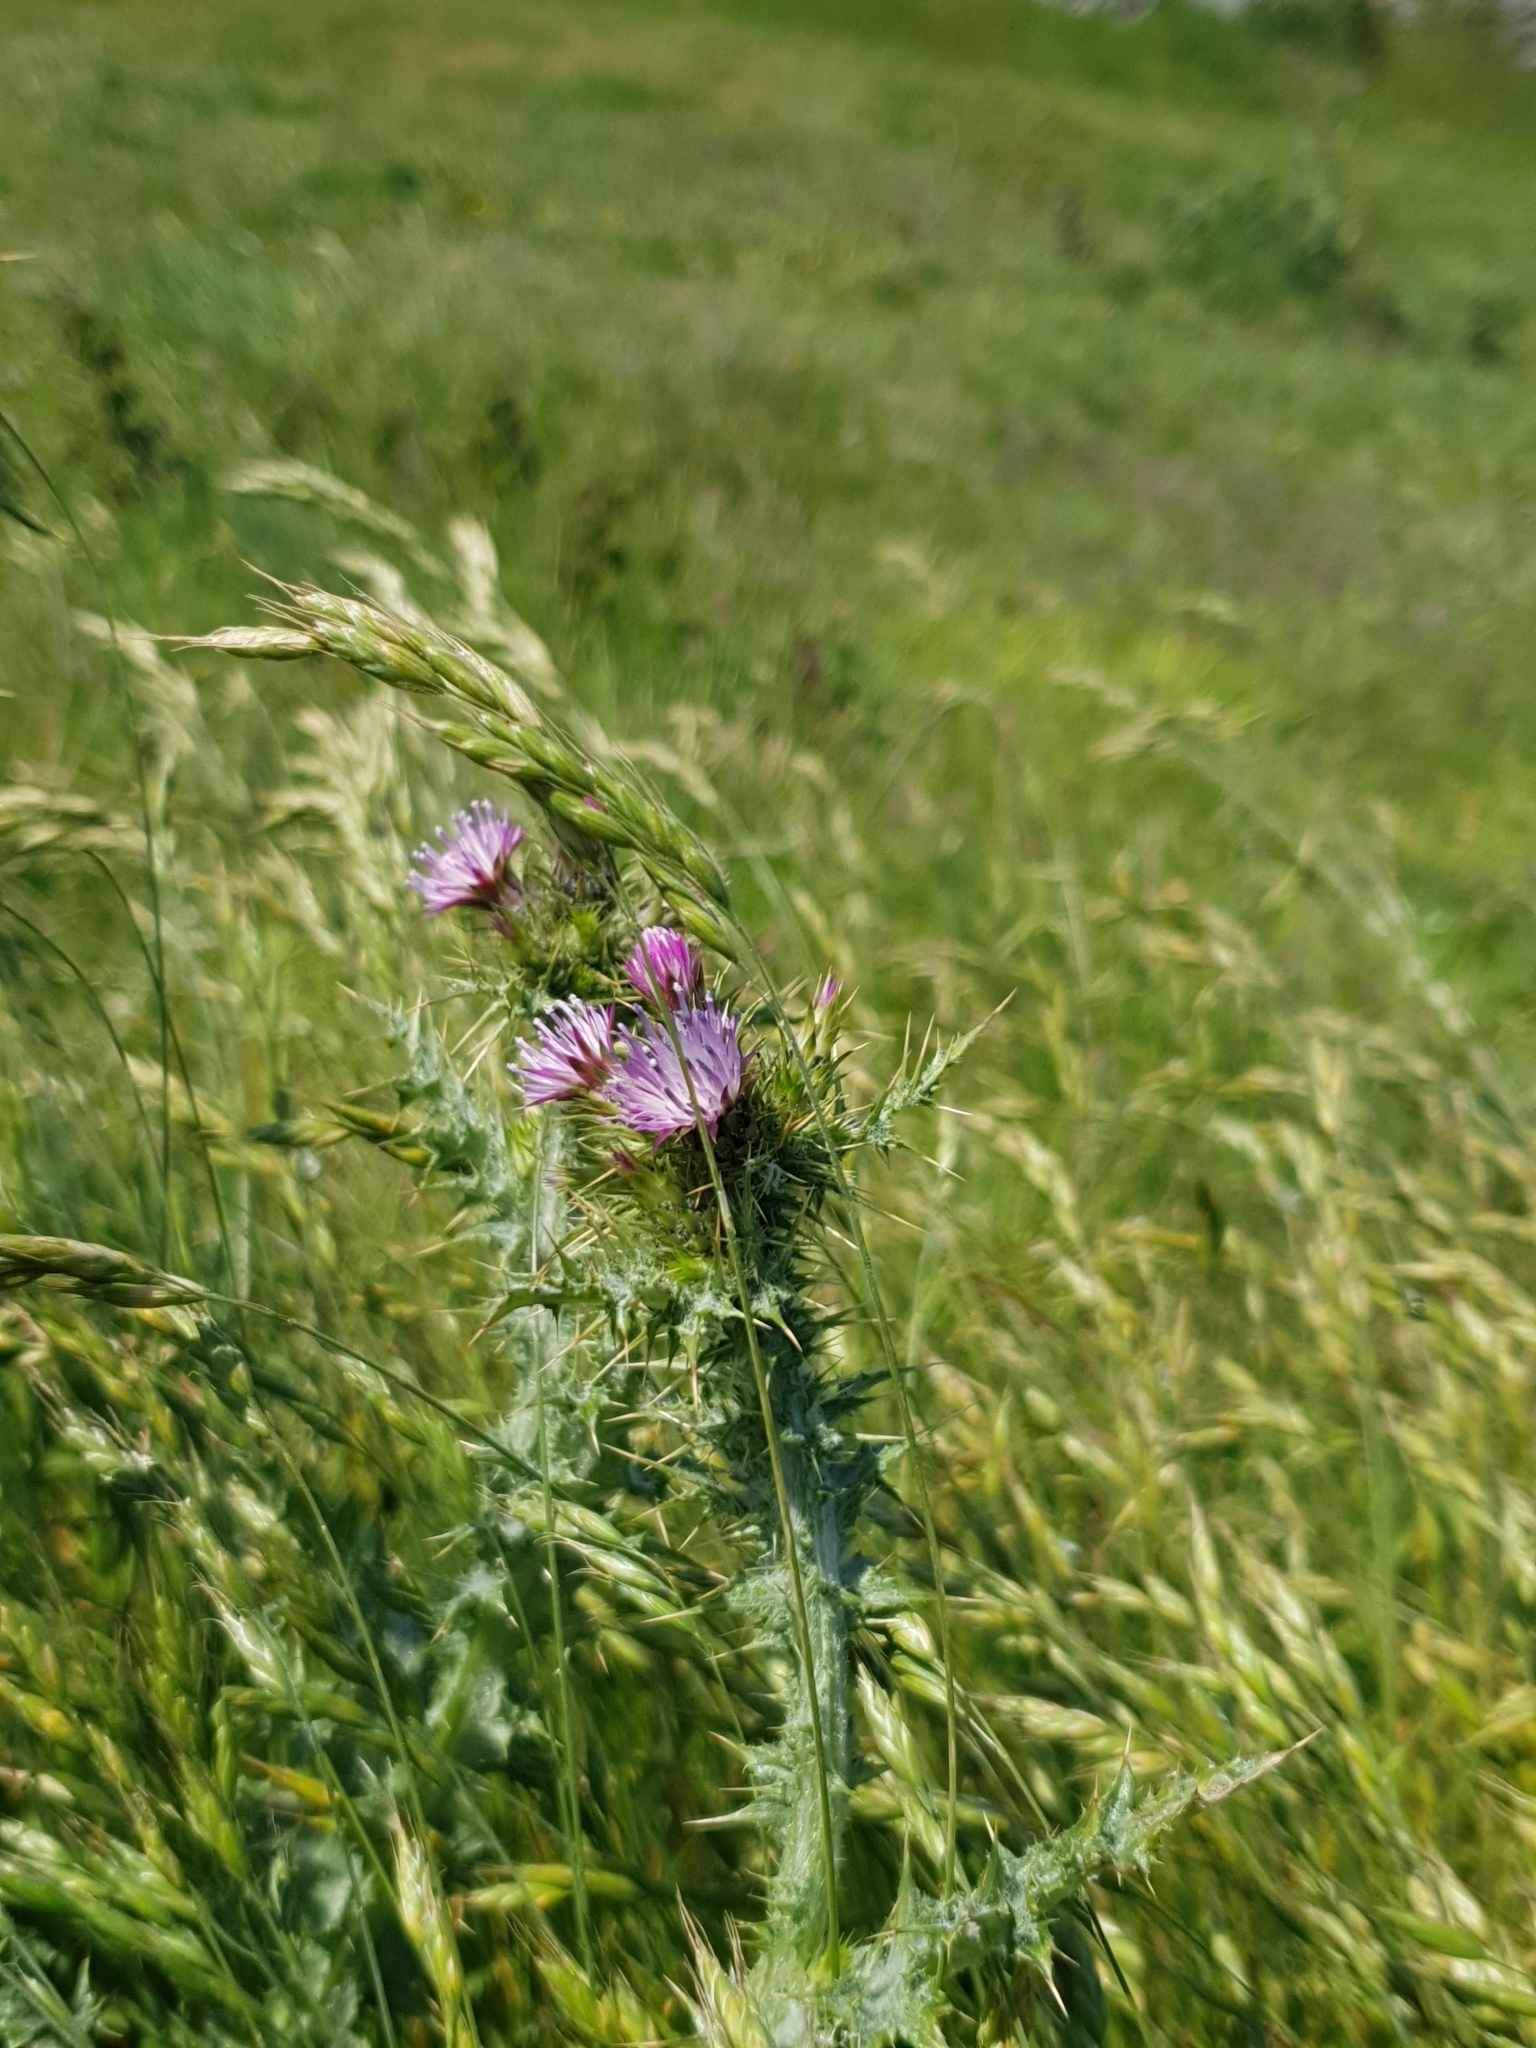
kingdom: Plantae
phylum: Tracheophyta
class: Magnoliopsida
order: Asterales
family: Asteraceae
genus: Carduus
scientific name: Carduus tenuiflorus
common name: Slender thistle
